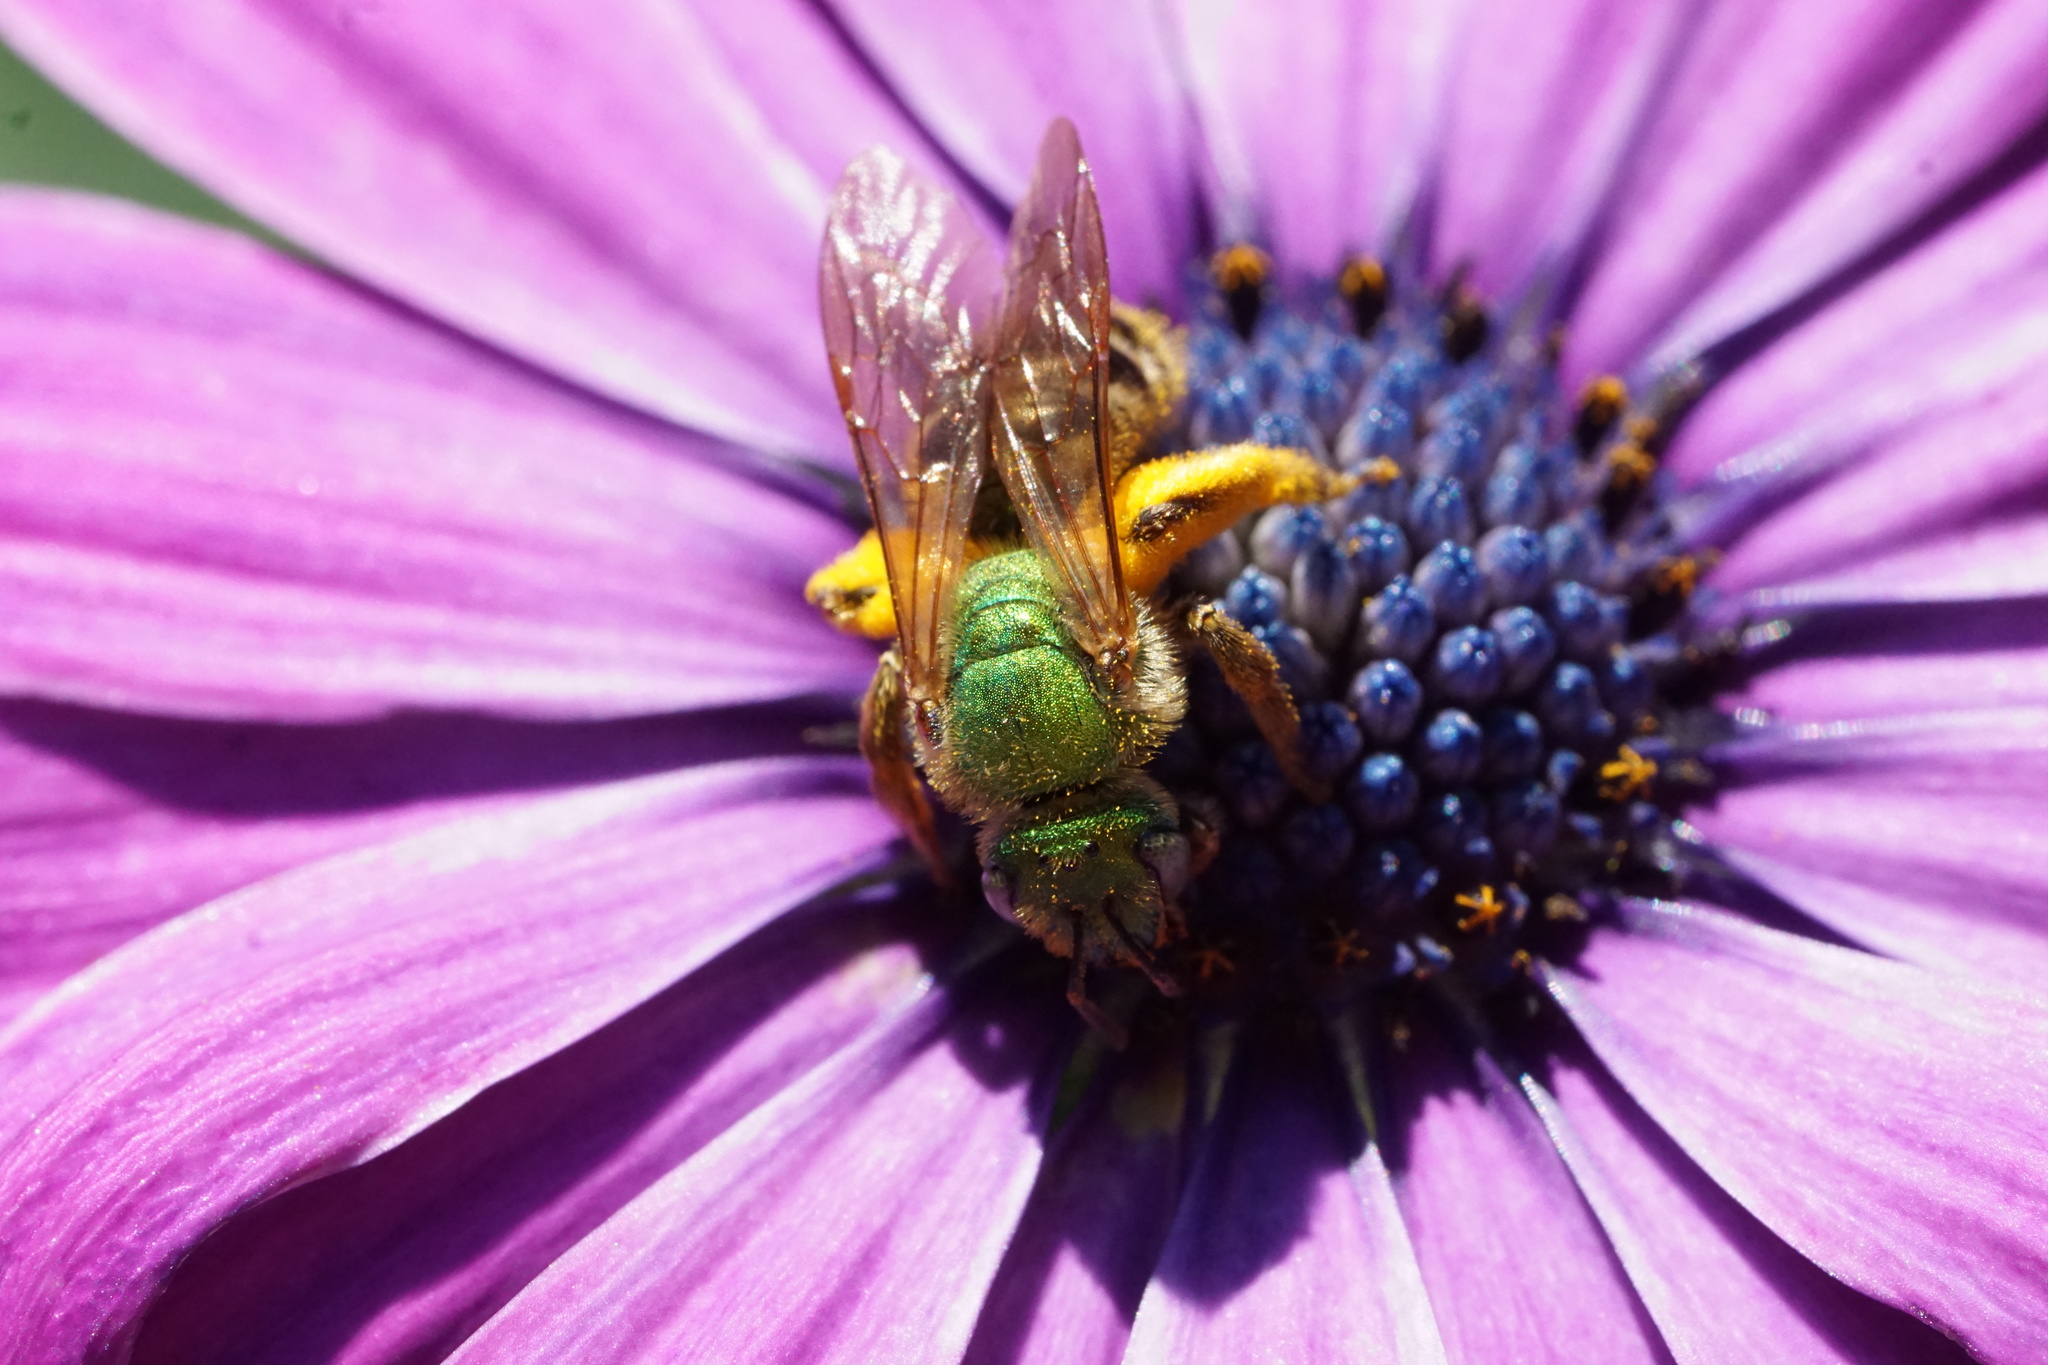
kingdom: Animalia
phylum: Arthropoda
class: Insecta
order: Hymenoptera
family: Halictidae
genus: Agapostemon
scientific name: Agapostemon virescens
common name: Bicolored striped sweat bee
